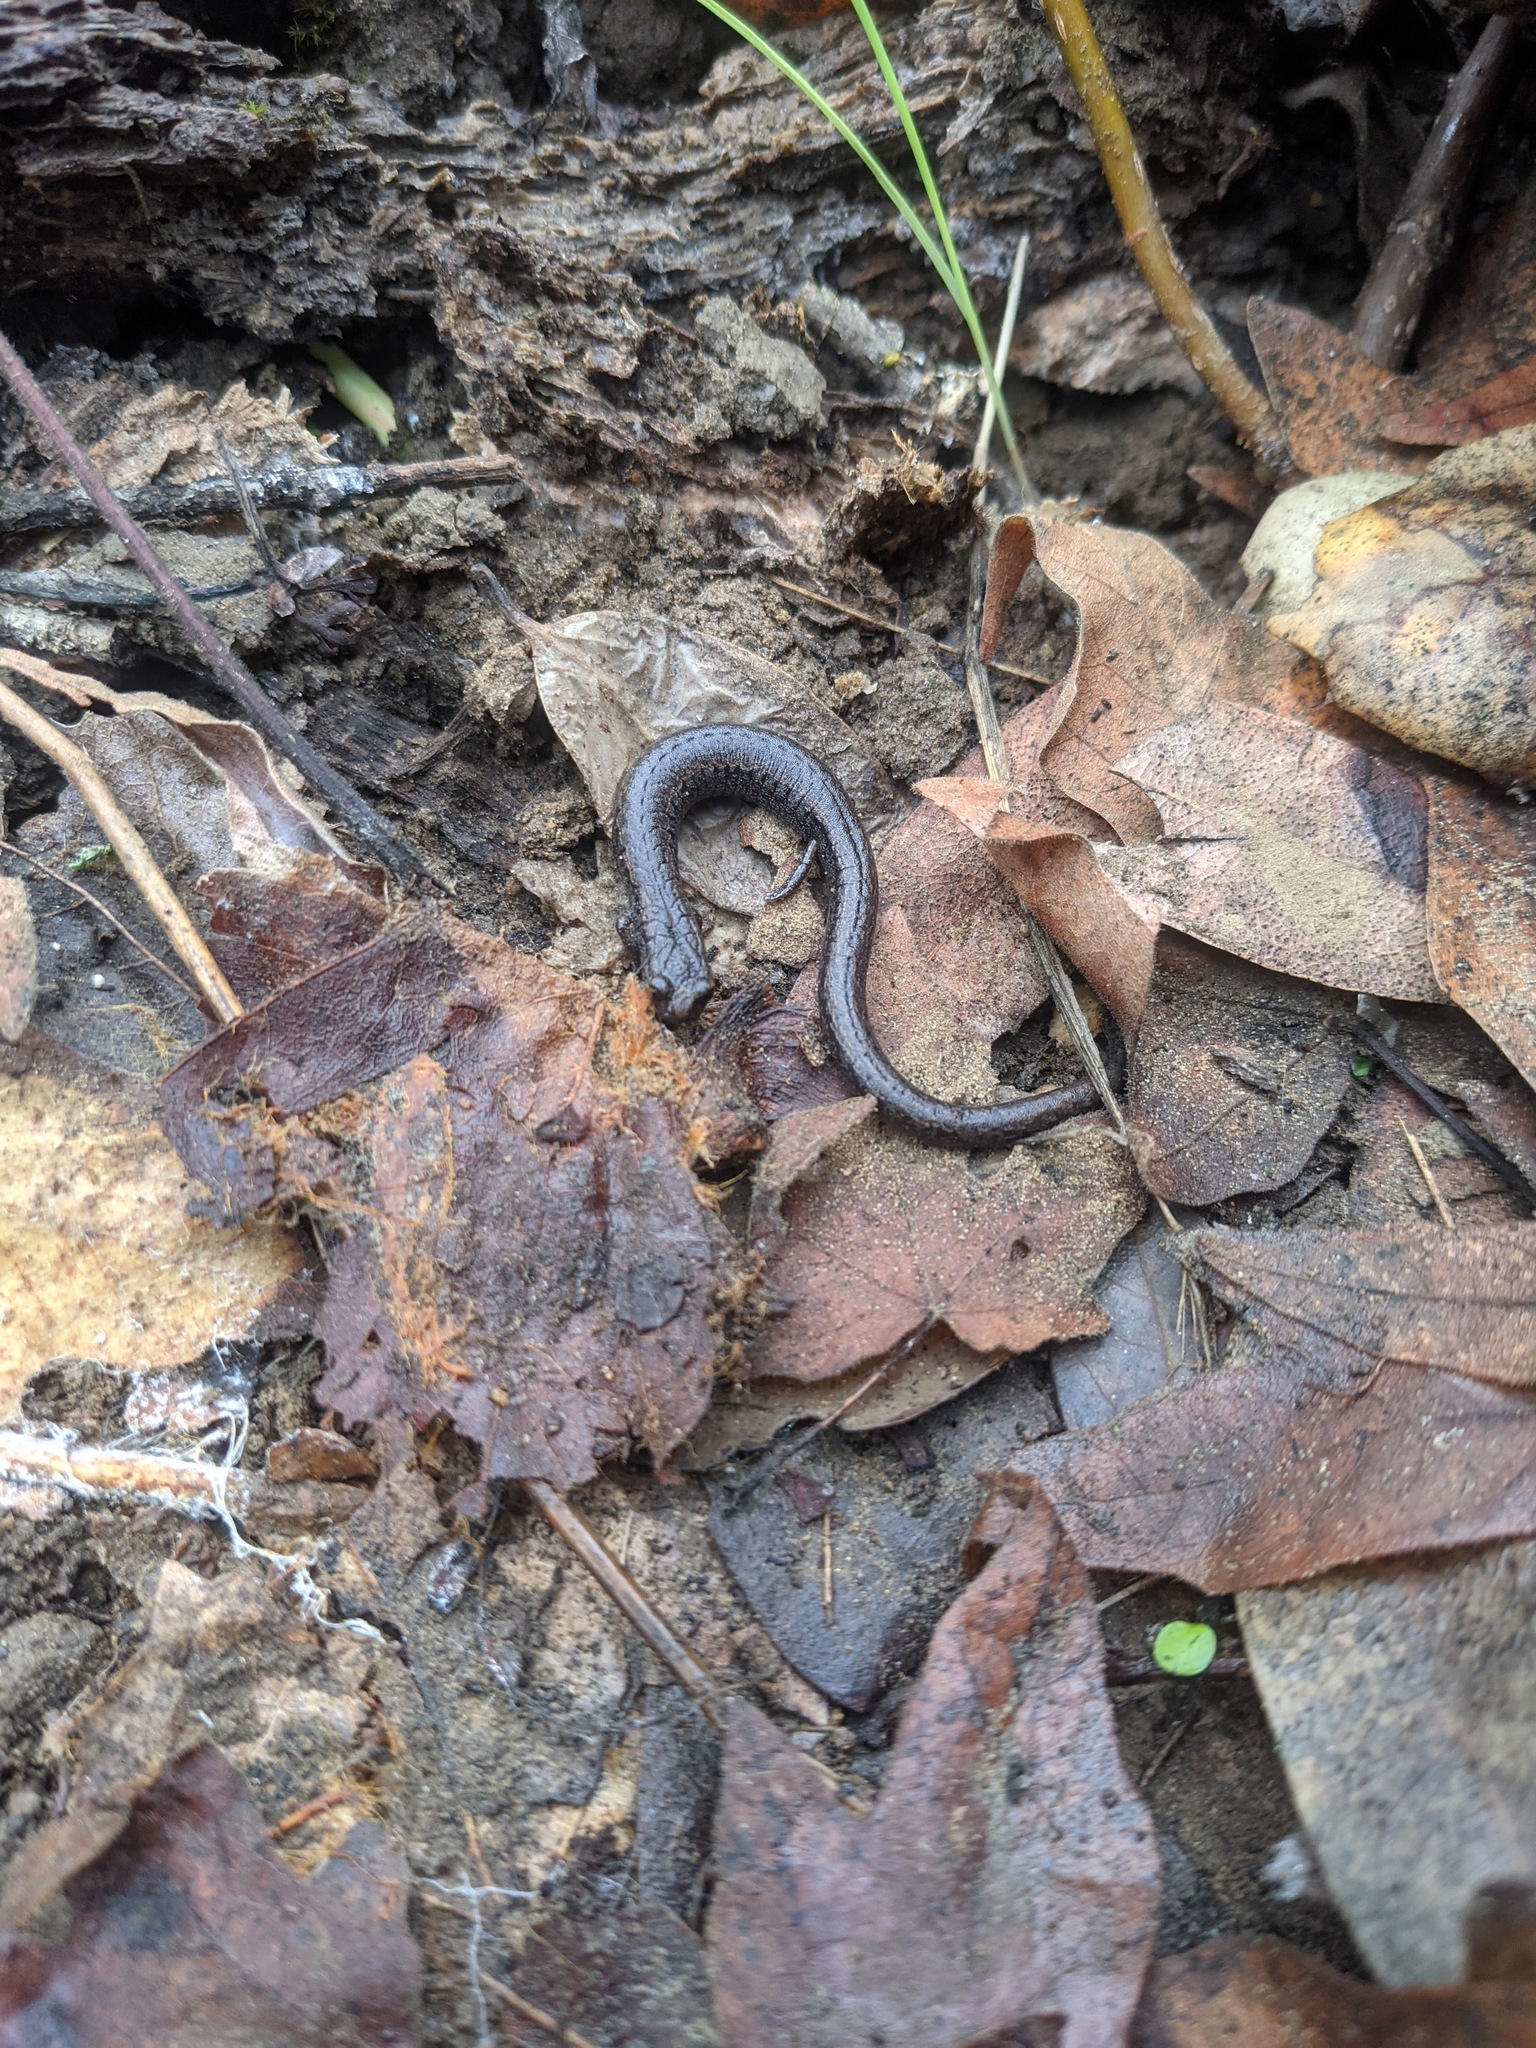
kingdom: Animalia
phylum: Chordata
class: Amphibia
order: Caudata
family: Plethodontidae
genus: Batrachoseps
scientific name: Batrachoseps attenuatus
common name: California slender salamander
